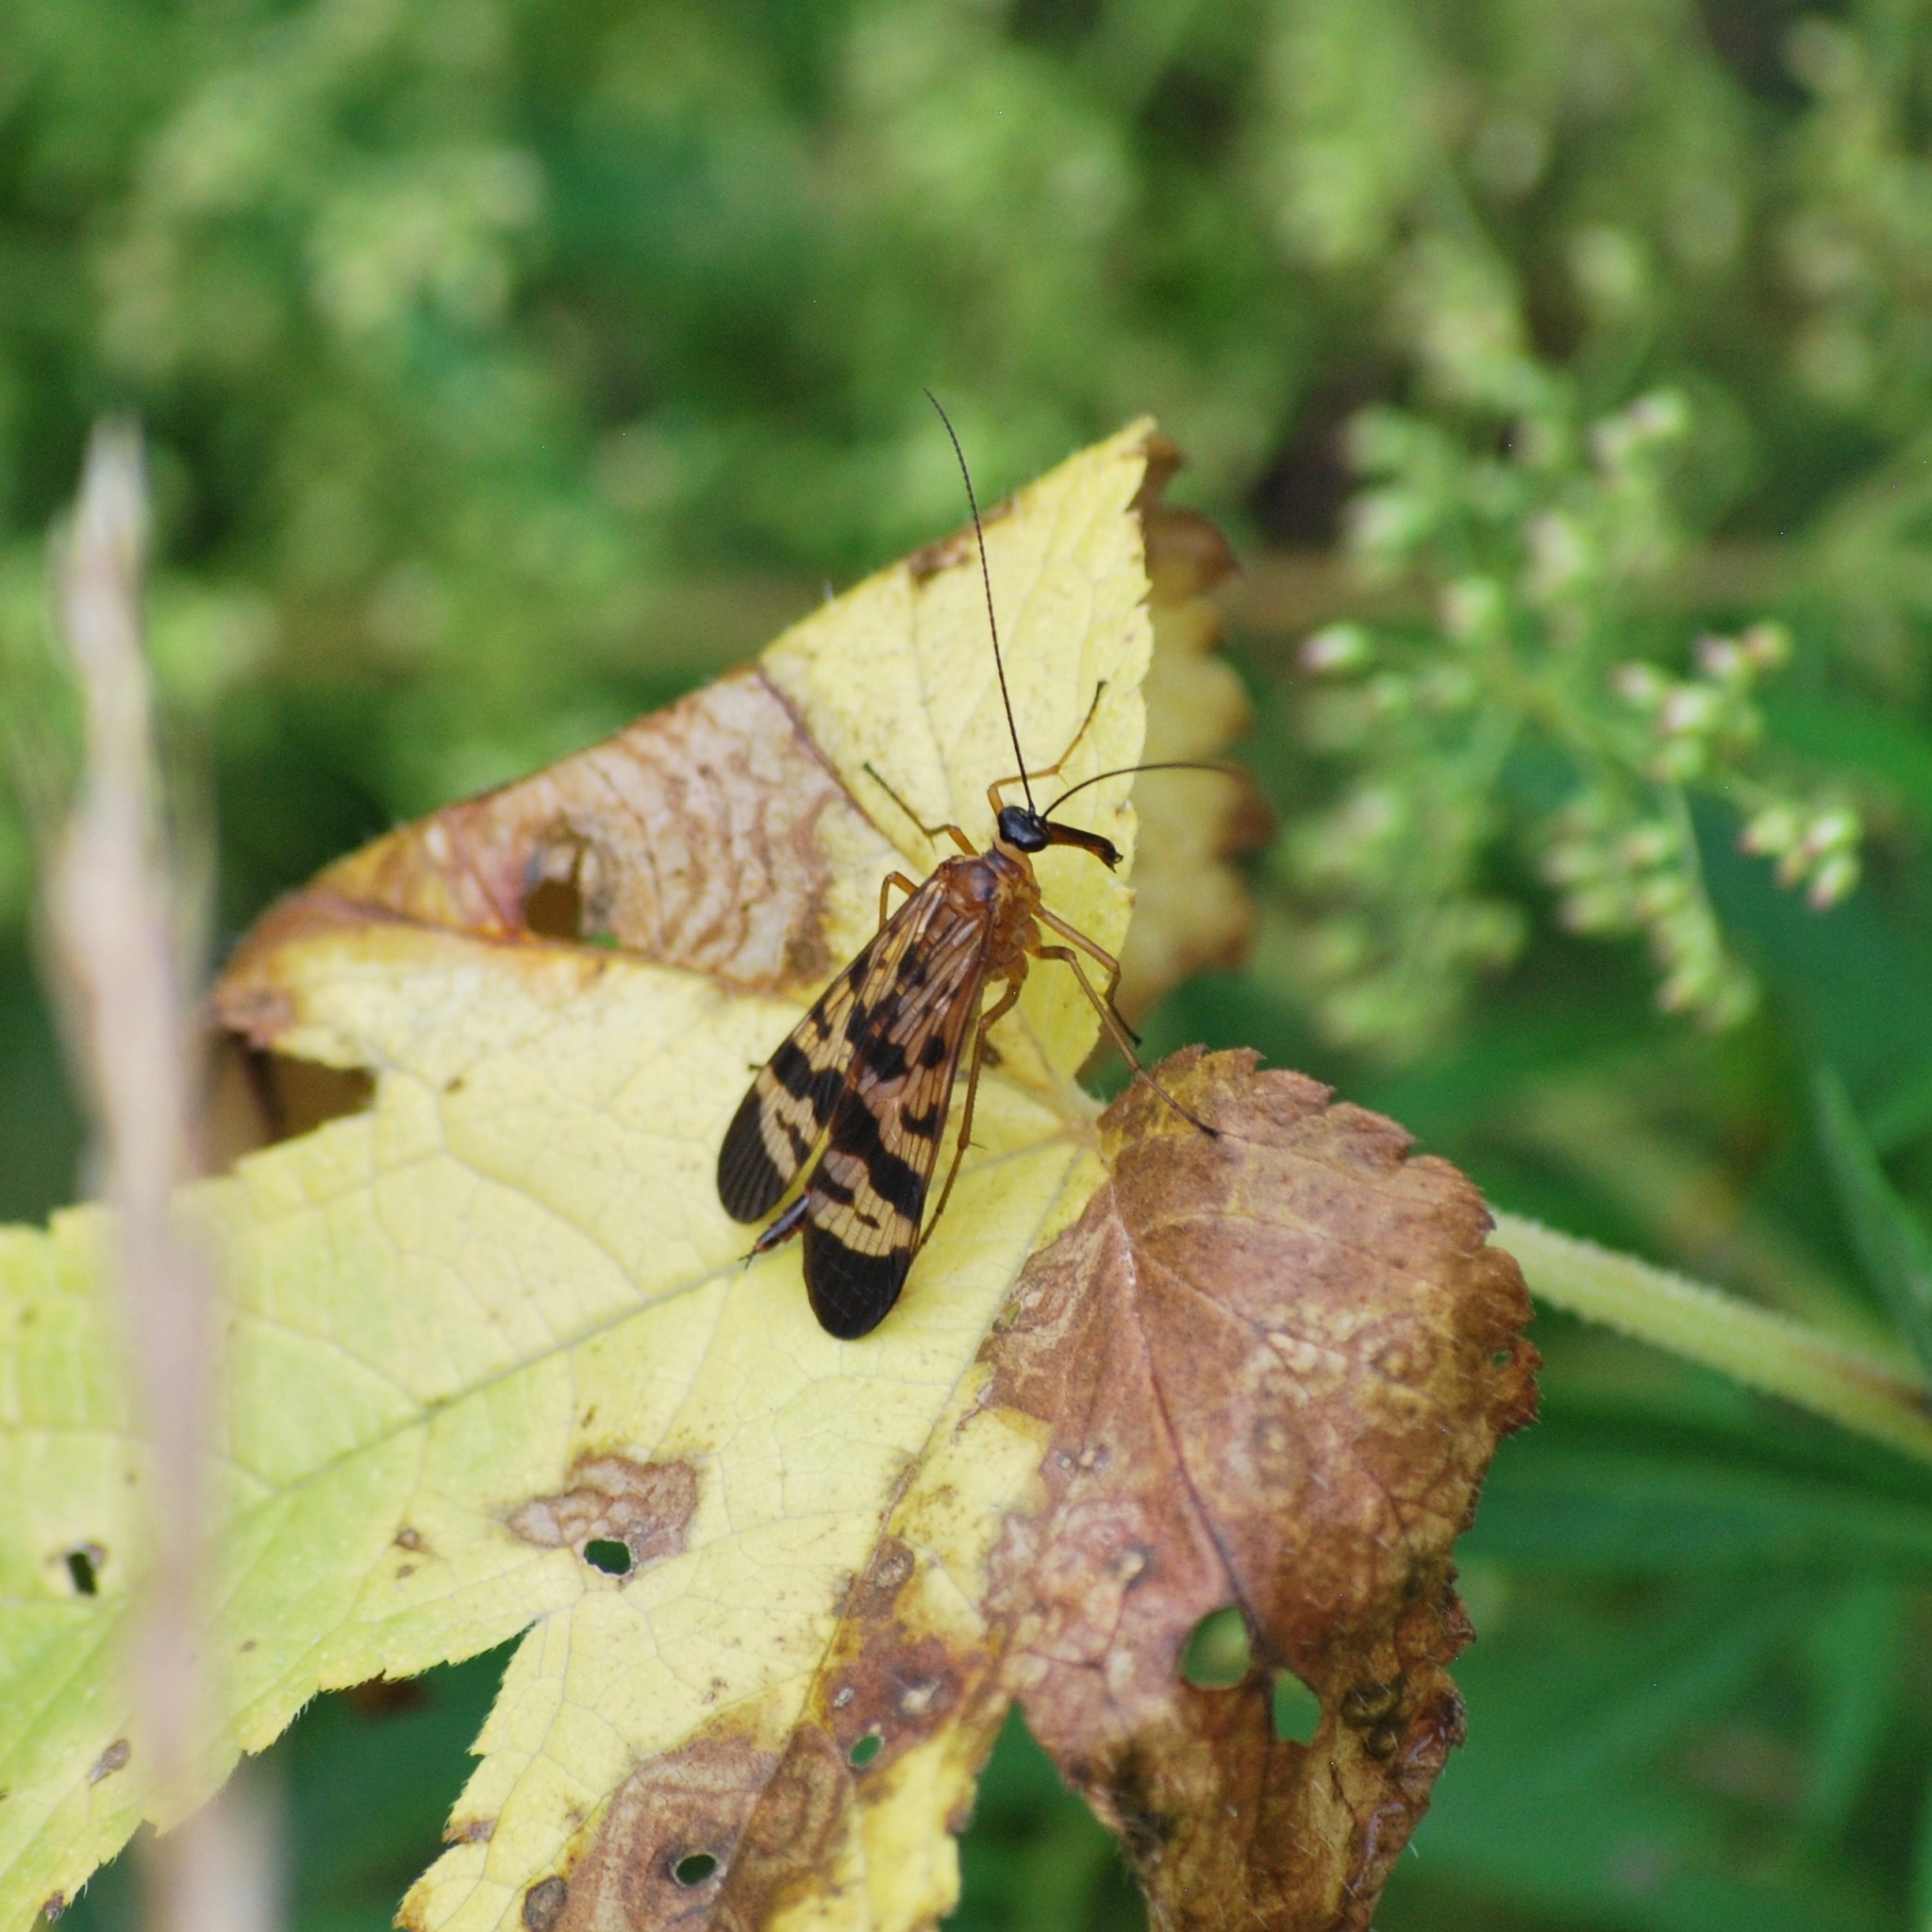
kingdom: Animalia
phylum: Arthropoda
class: Insecta
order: Mecoptera
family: Panorpidae
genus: Panorpa
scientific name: Panorpa amurensis
